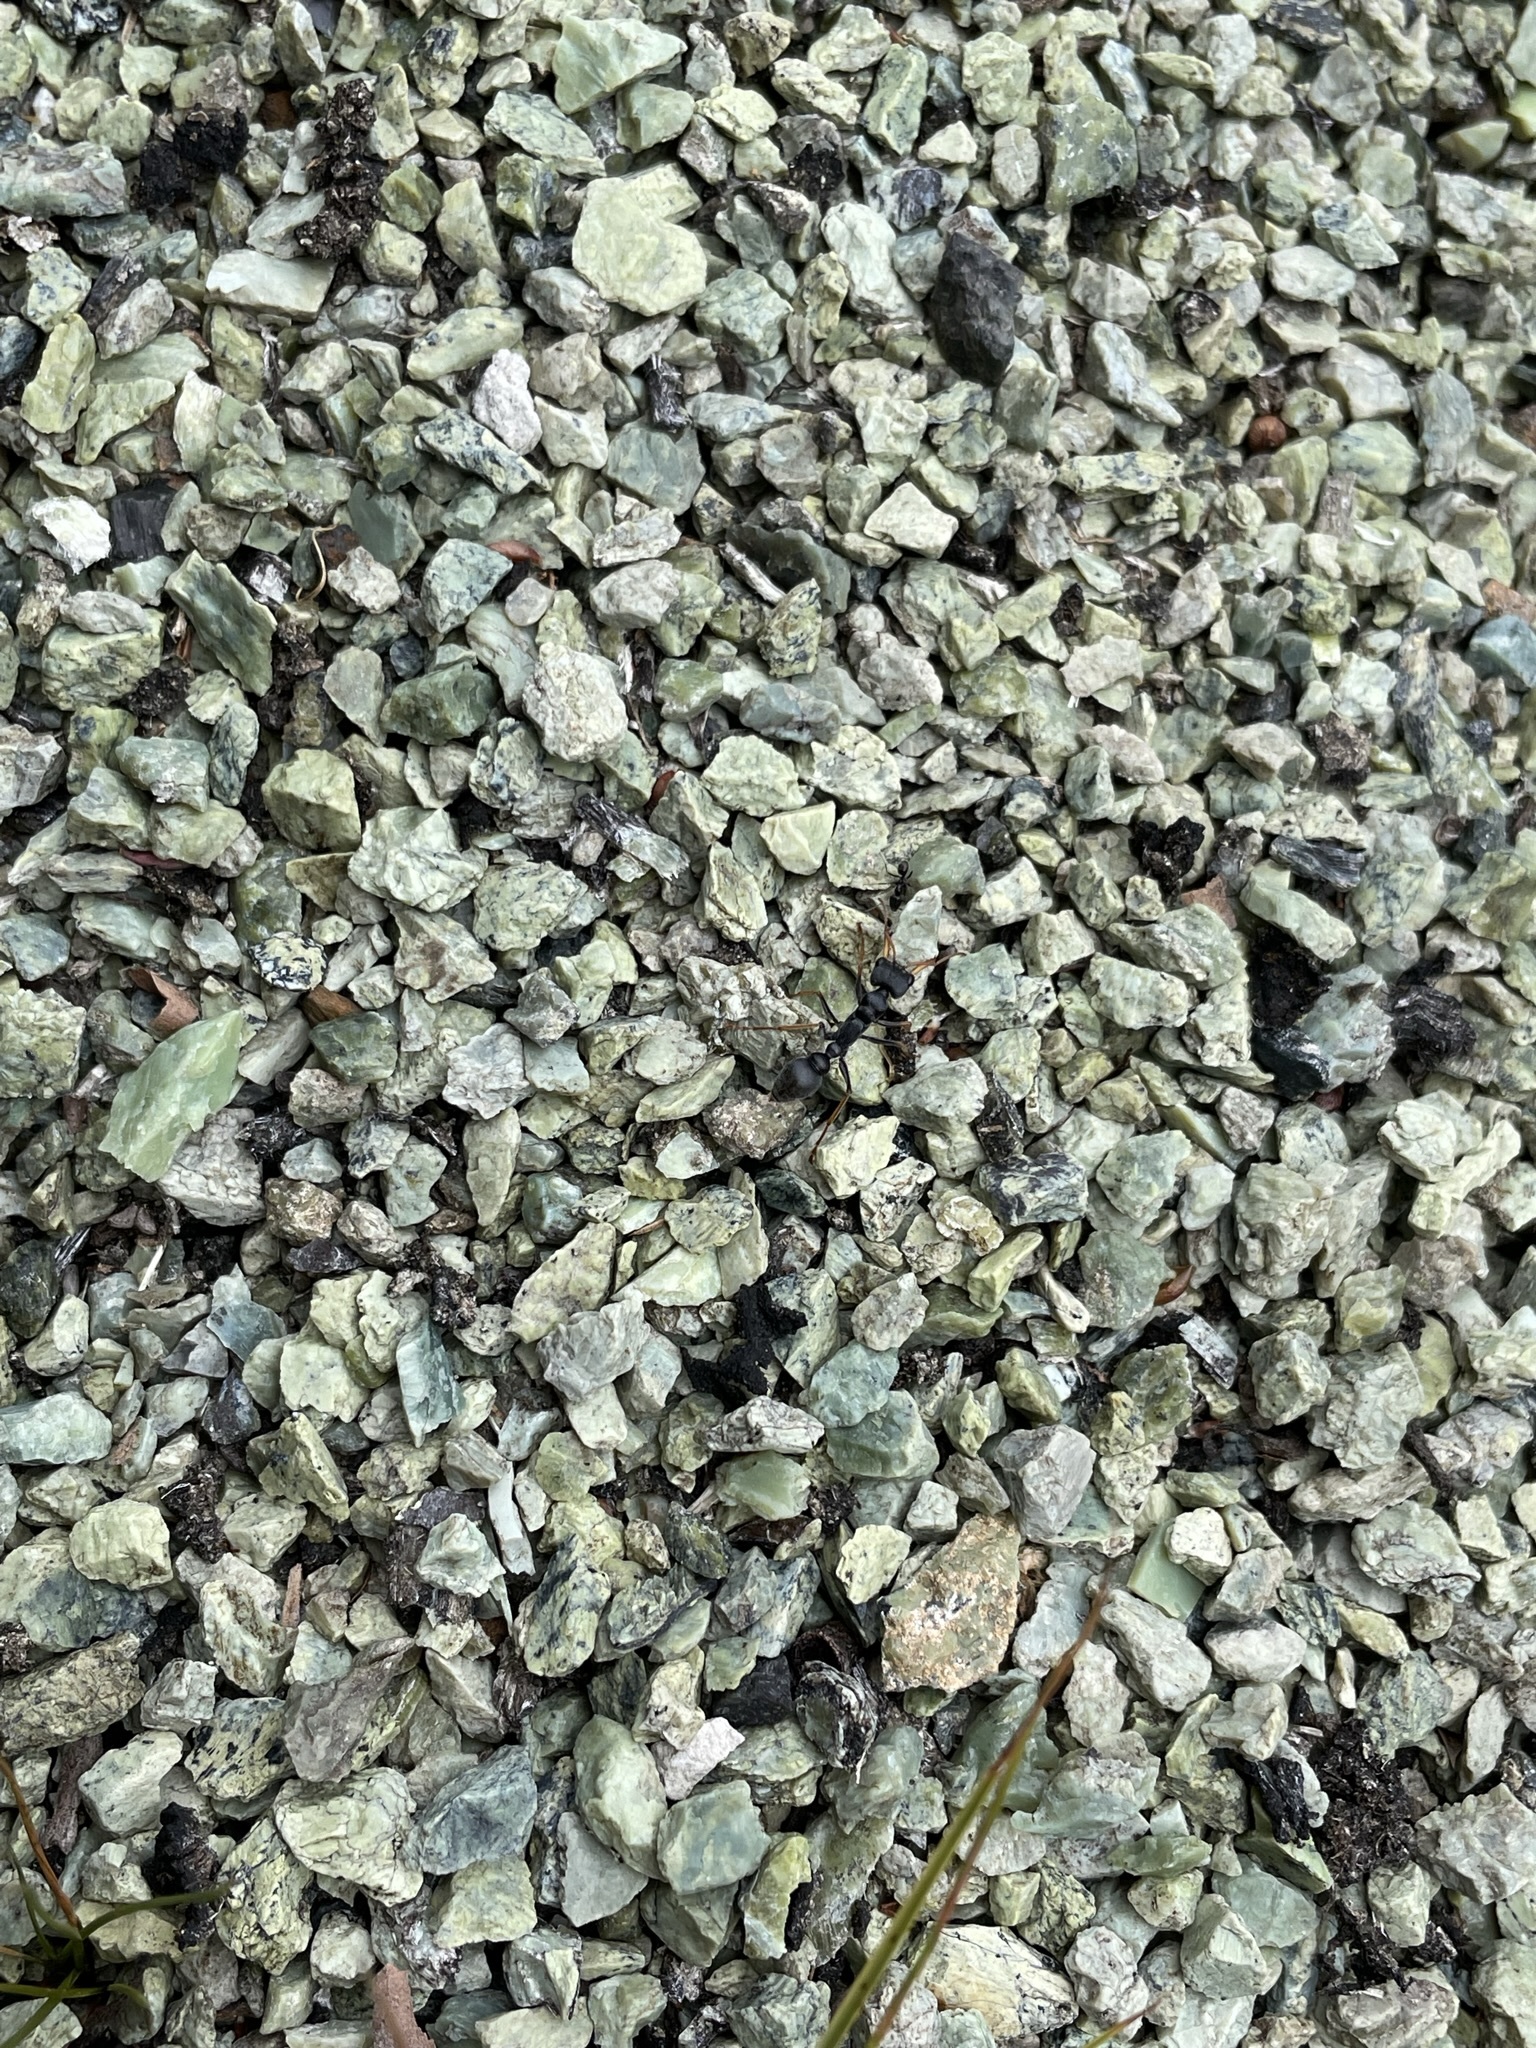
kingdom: Animalia
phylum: Arthropoda
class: Insecta
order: Hymenoptera
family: Formicidae
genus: Myrmecia
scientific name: Myrmecia pilosula
